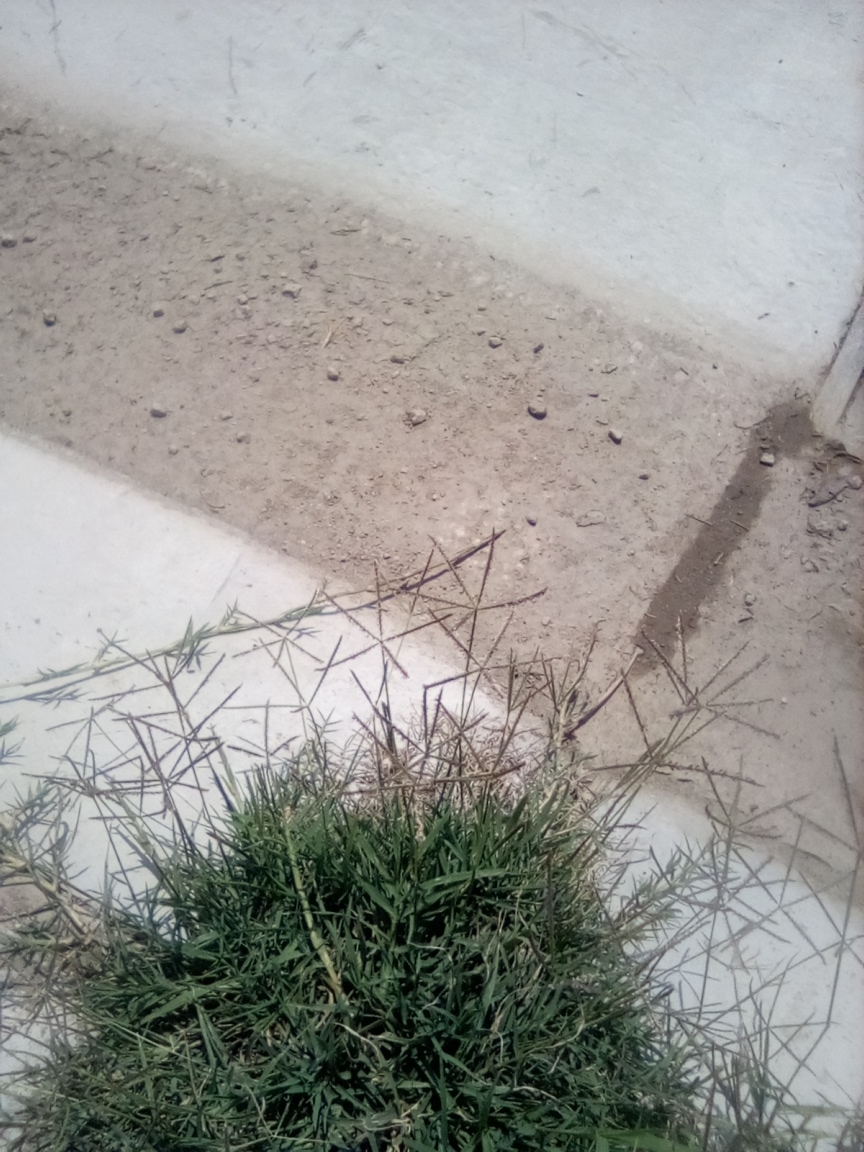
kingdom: Plantae
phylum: Tracheophyta
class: Liliopsida
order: Poales
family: Poaceae
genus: Cynodon
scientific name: Cynodon dactylon
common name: Bermuda grass
